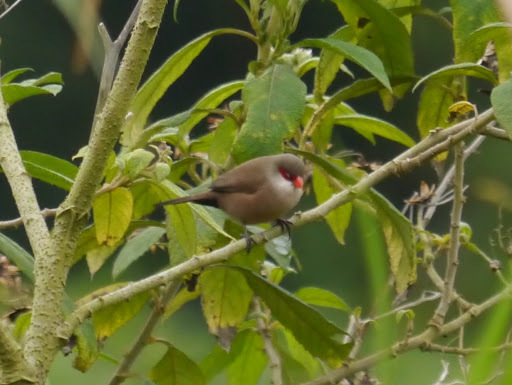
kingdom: Animalia
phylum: Chordata
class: Aves
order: Passeriformes
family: Estrildidae
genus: Estrilda
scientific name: Estrilda astrild
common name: Common waxbill
